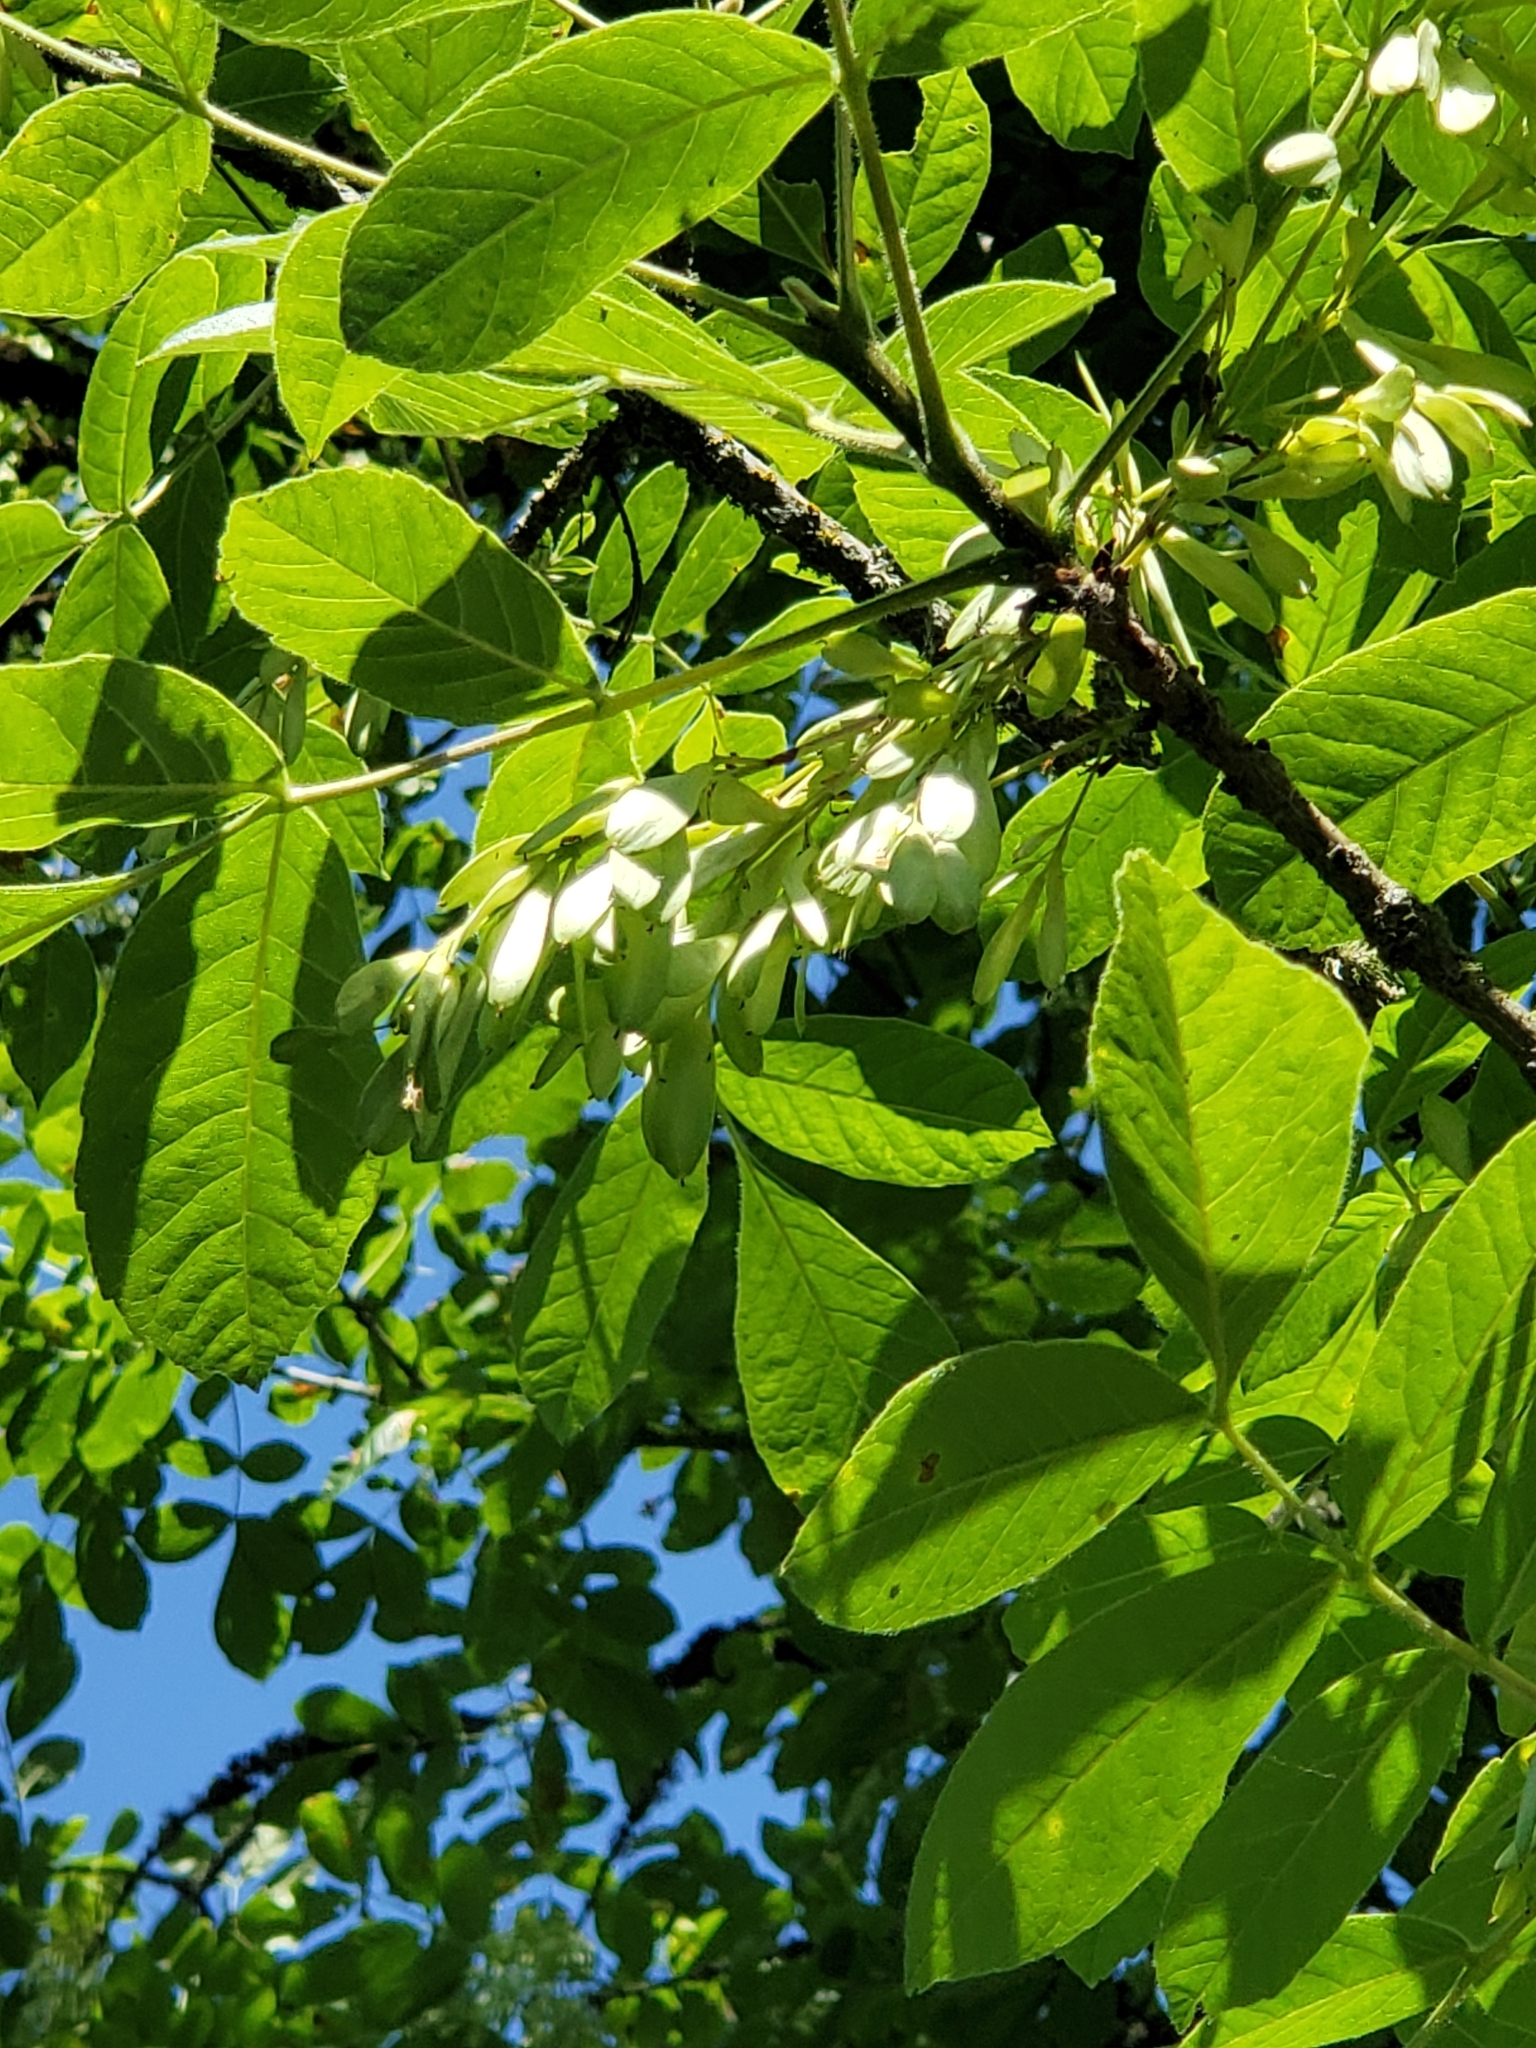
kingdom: Plantae
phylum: Tracheophyta
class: Magnoliopsida
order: Lamiales
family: Oleaceae
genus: Fraxinus
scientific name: Fraxinus latifolia
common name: Oregon ash
